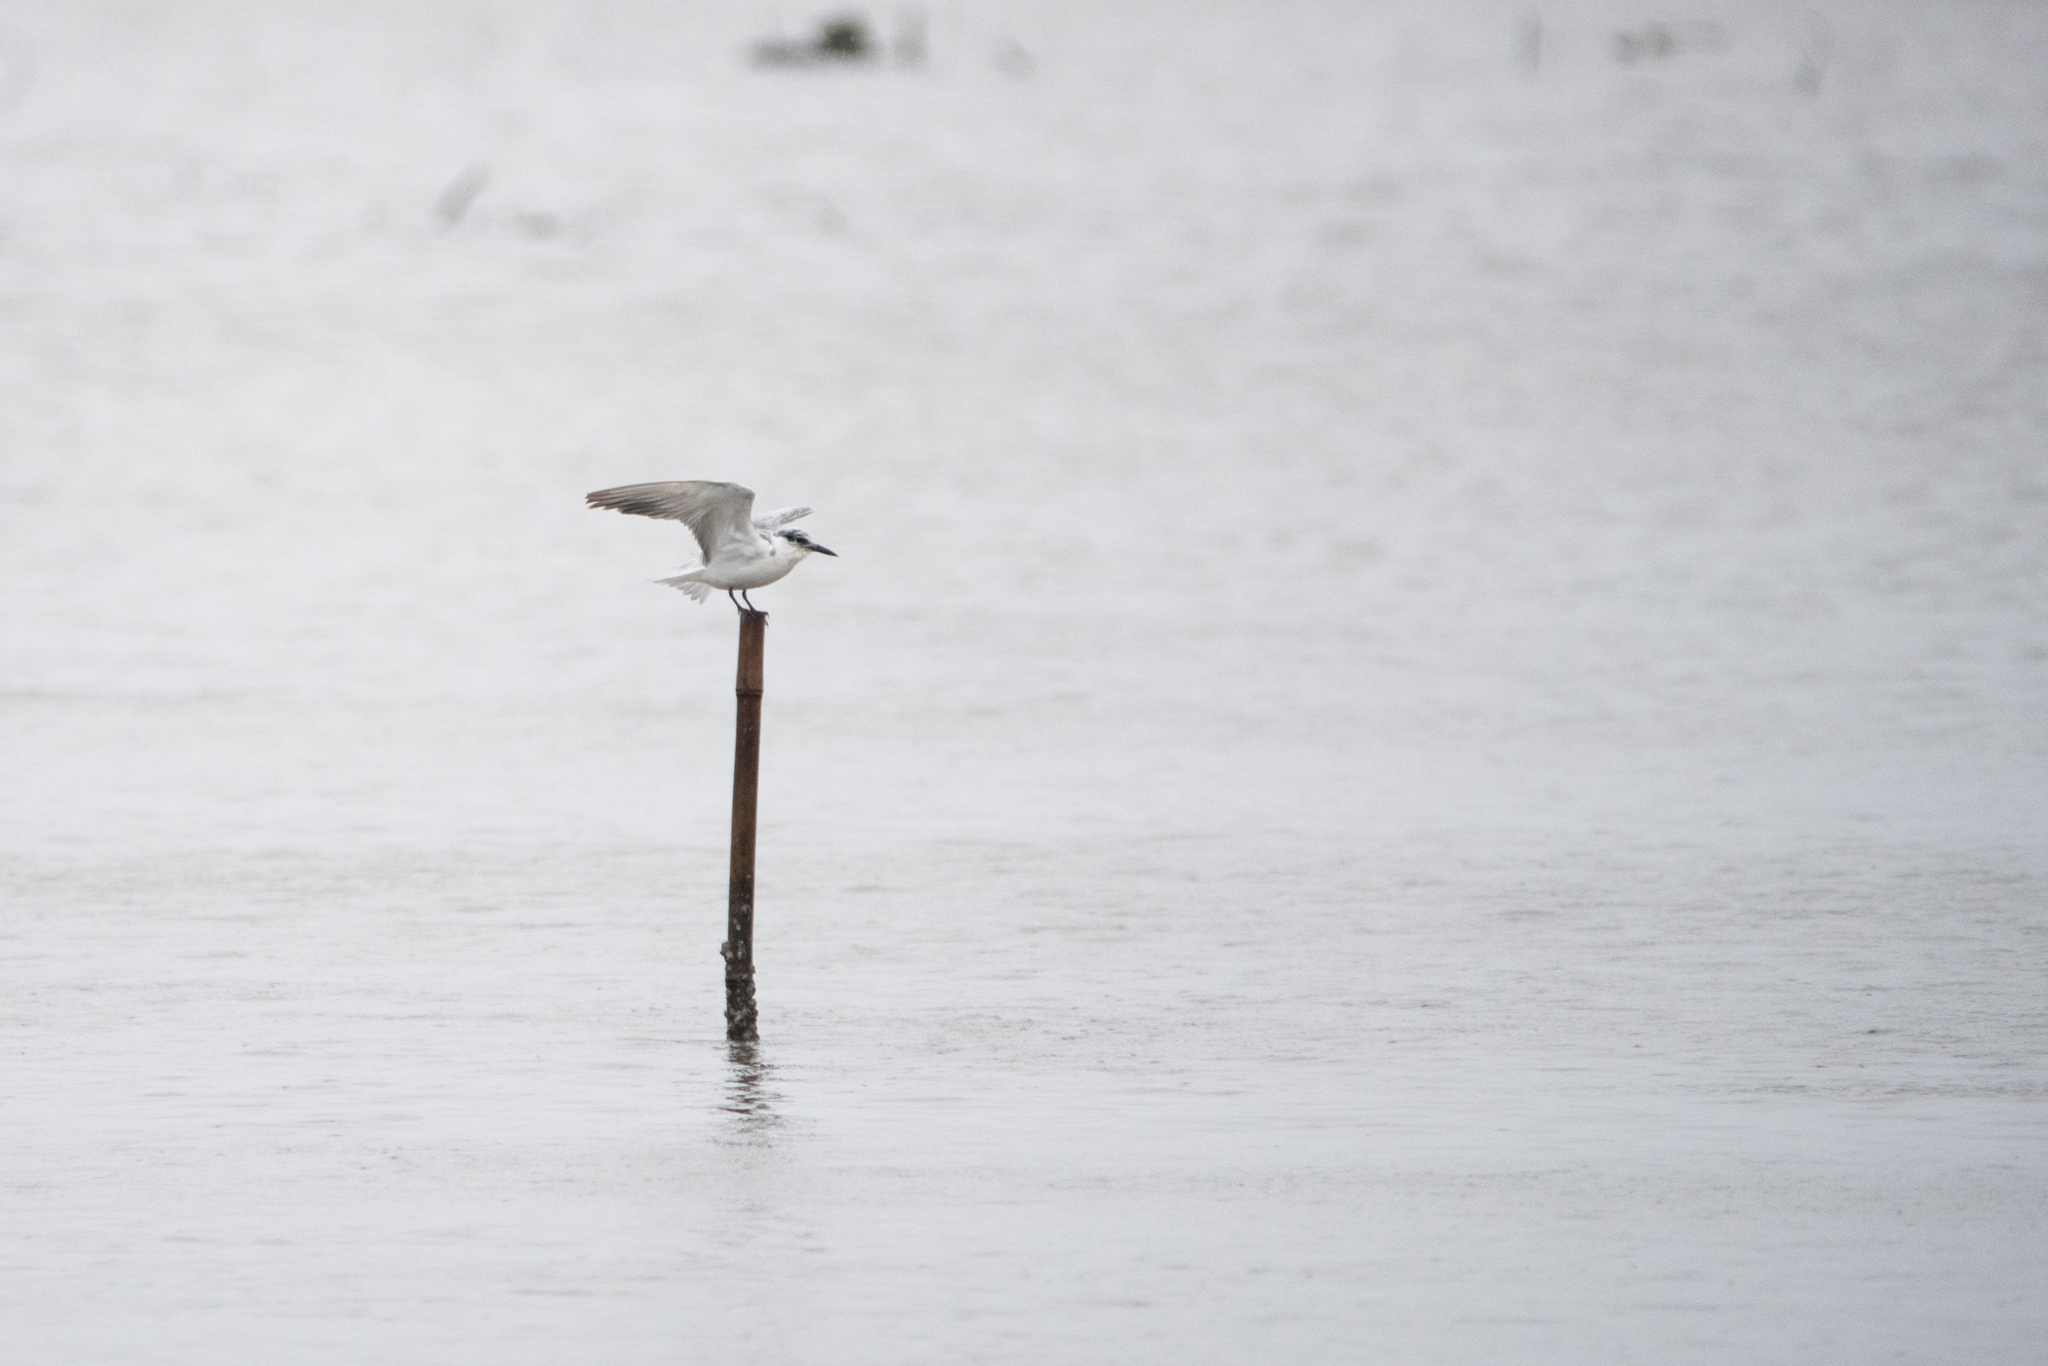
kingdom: Animalia
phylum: Chordata
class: Aves
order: Charadriiformes
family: Laridae
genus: Chlidonias
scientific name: Chlidonias hybrida
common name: Whiskered tern
